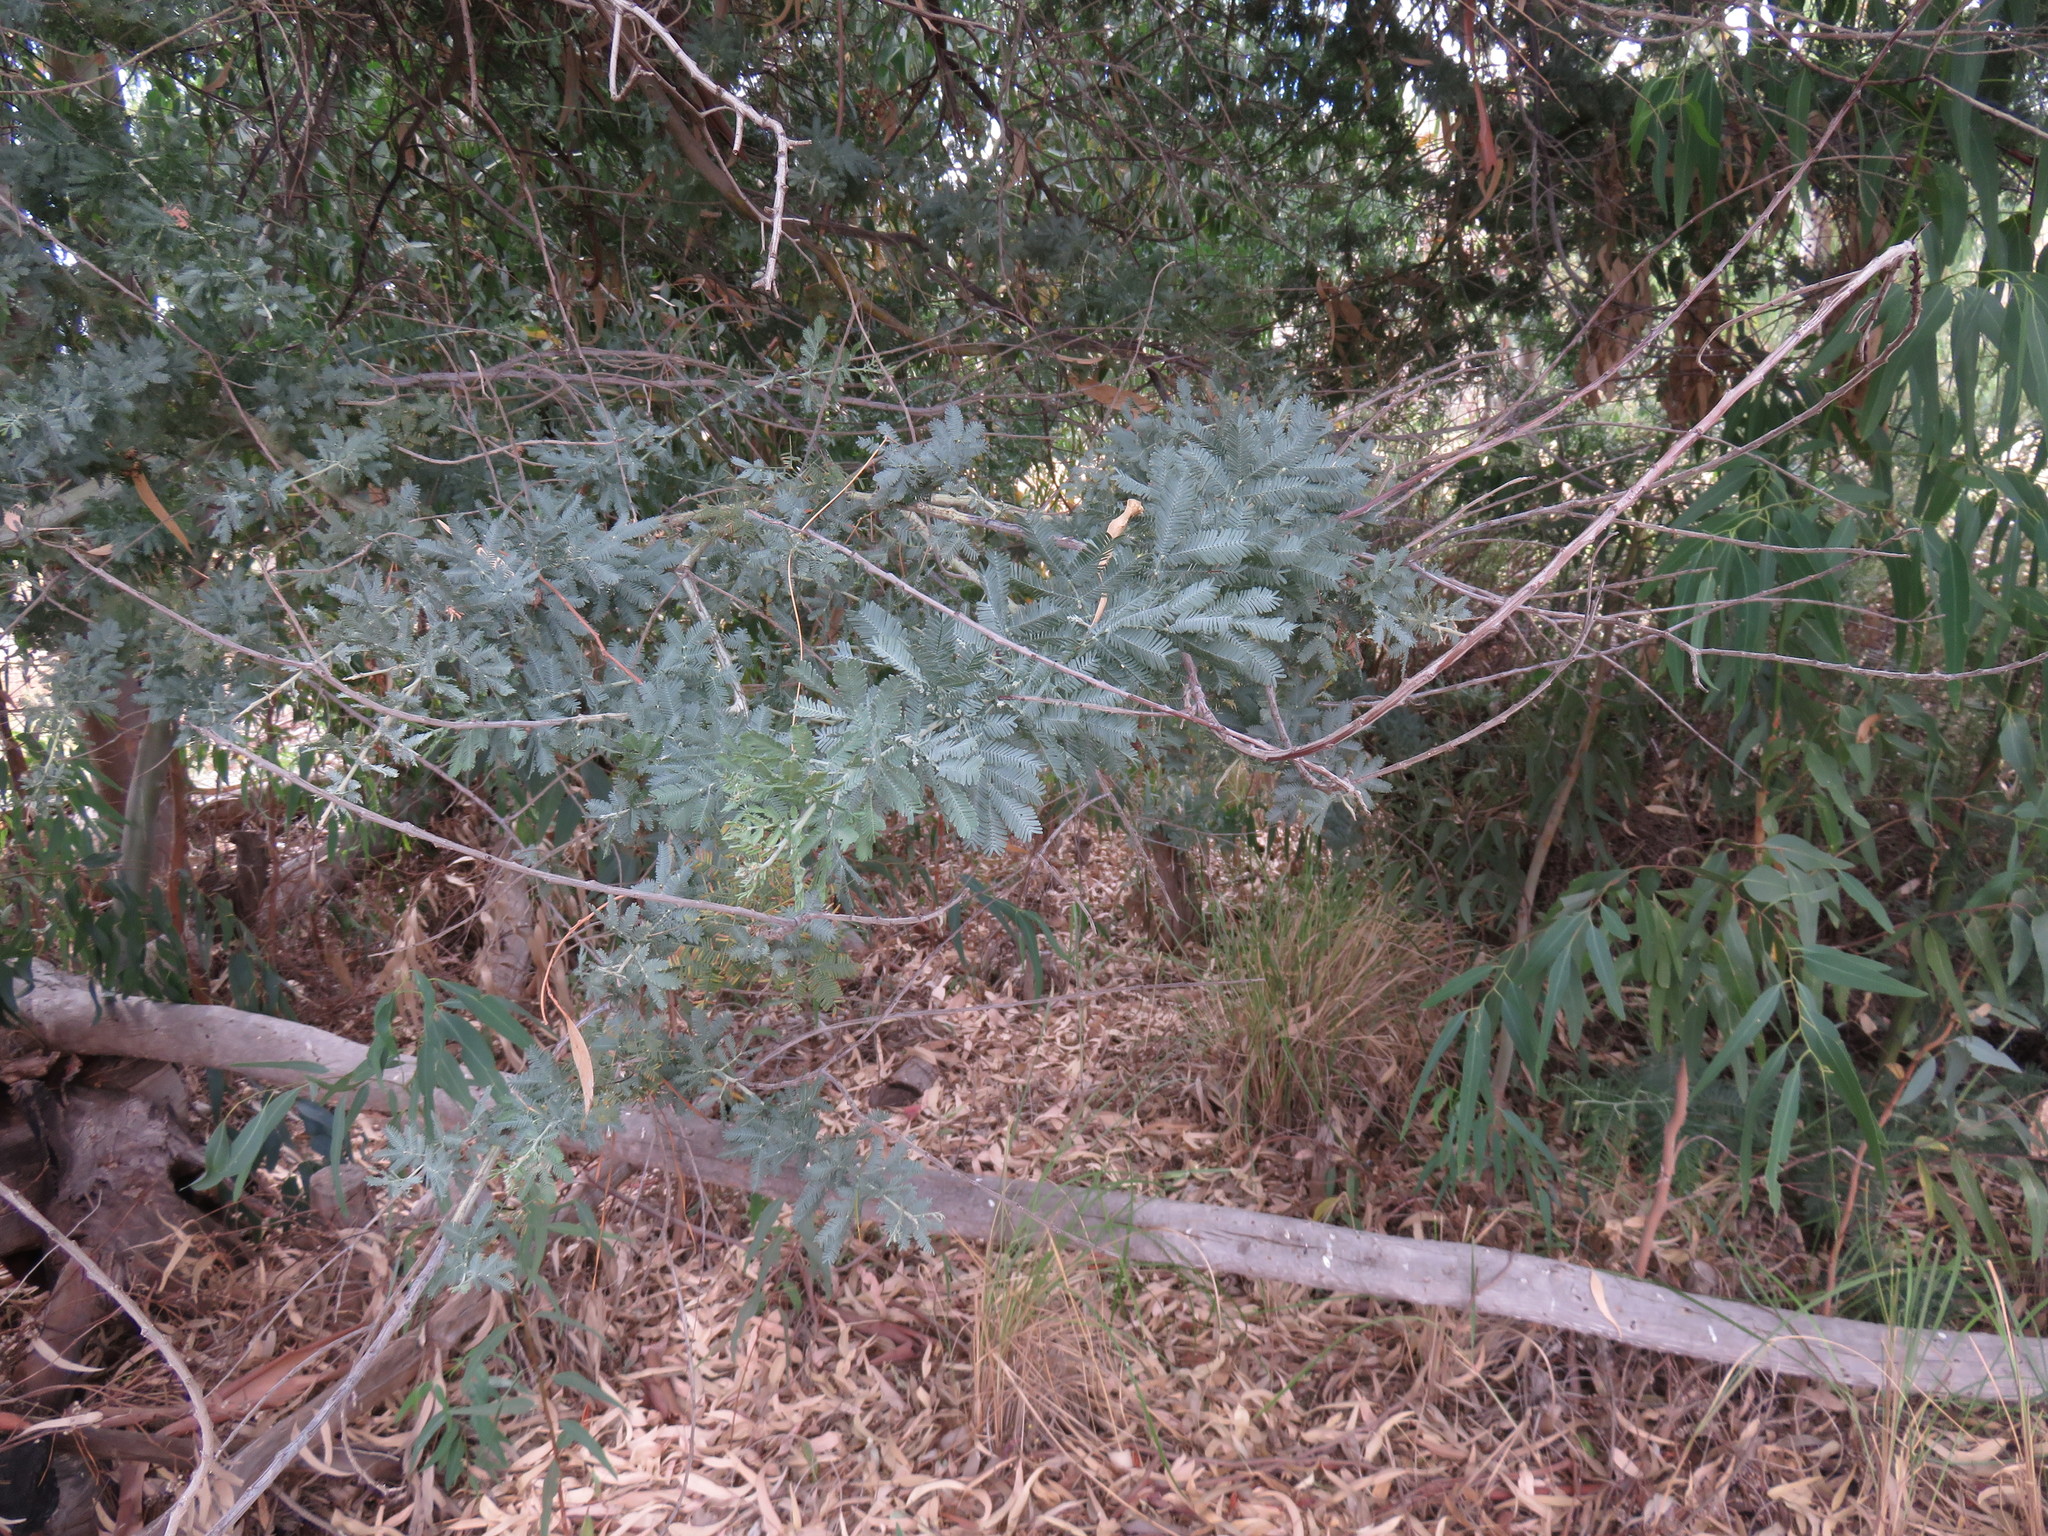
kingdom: Plantae
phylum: Tracheophyta
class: Magnoliopsida
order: Fabales
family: Fabaceae
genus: Acacia
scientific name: Acacia baileyana
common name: Cootamundra wattle
